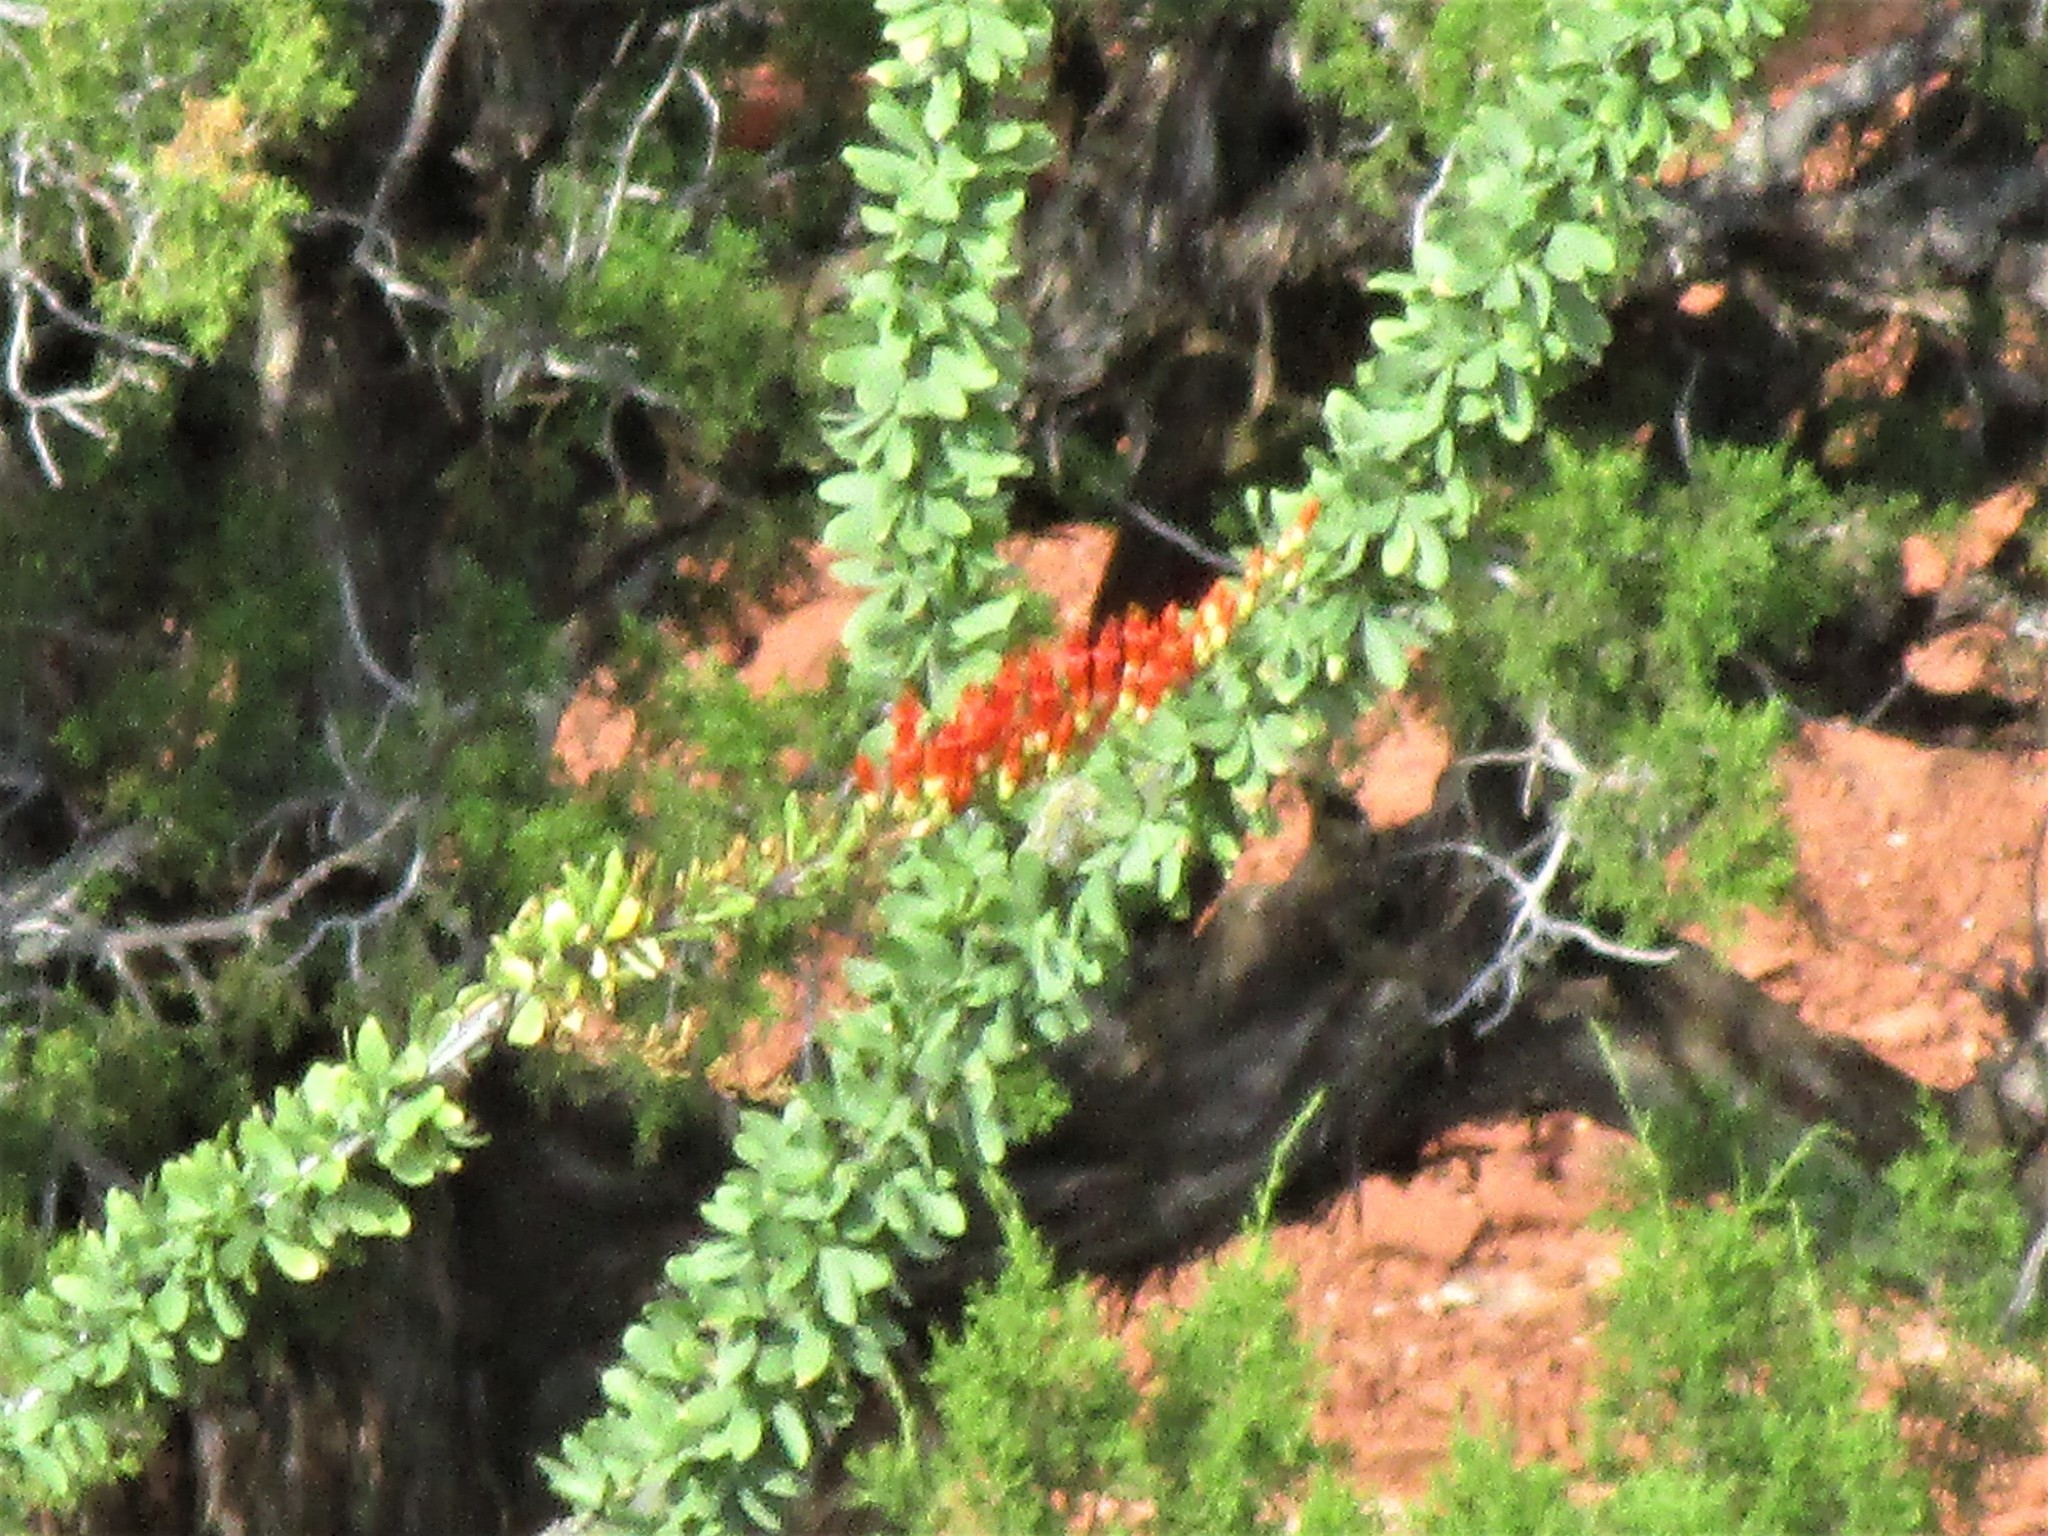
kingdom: Plantae
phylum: Tracheophyta
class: Magnoliopsida
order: Ericales
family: Fouquieriaceae
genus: Fouquieria
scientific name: Fouquieria splendens
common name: Vine-cactus
